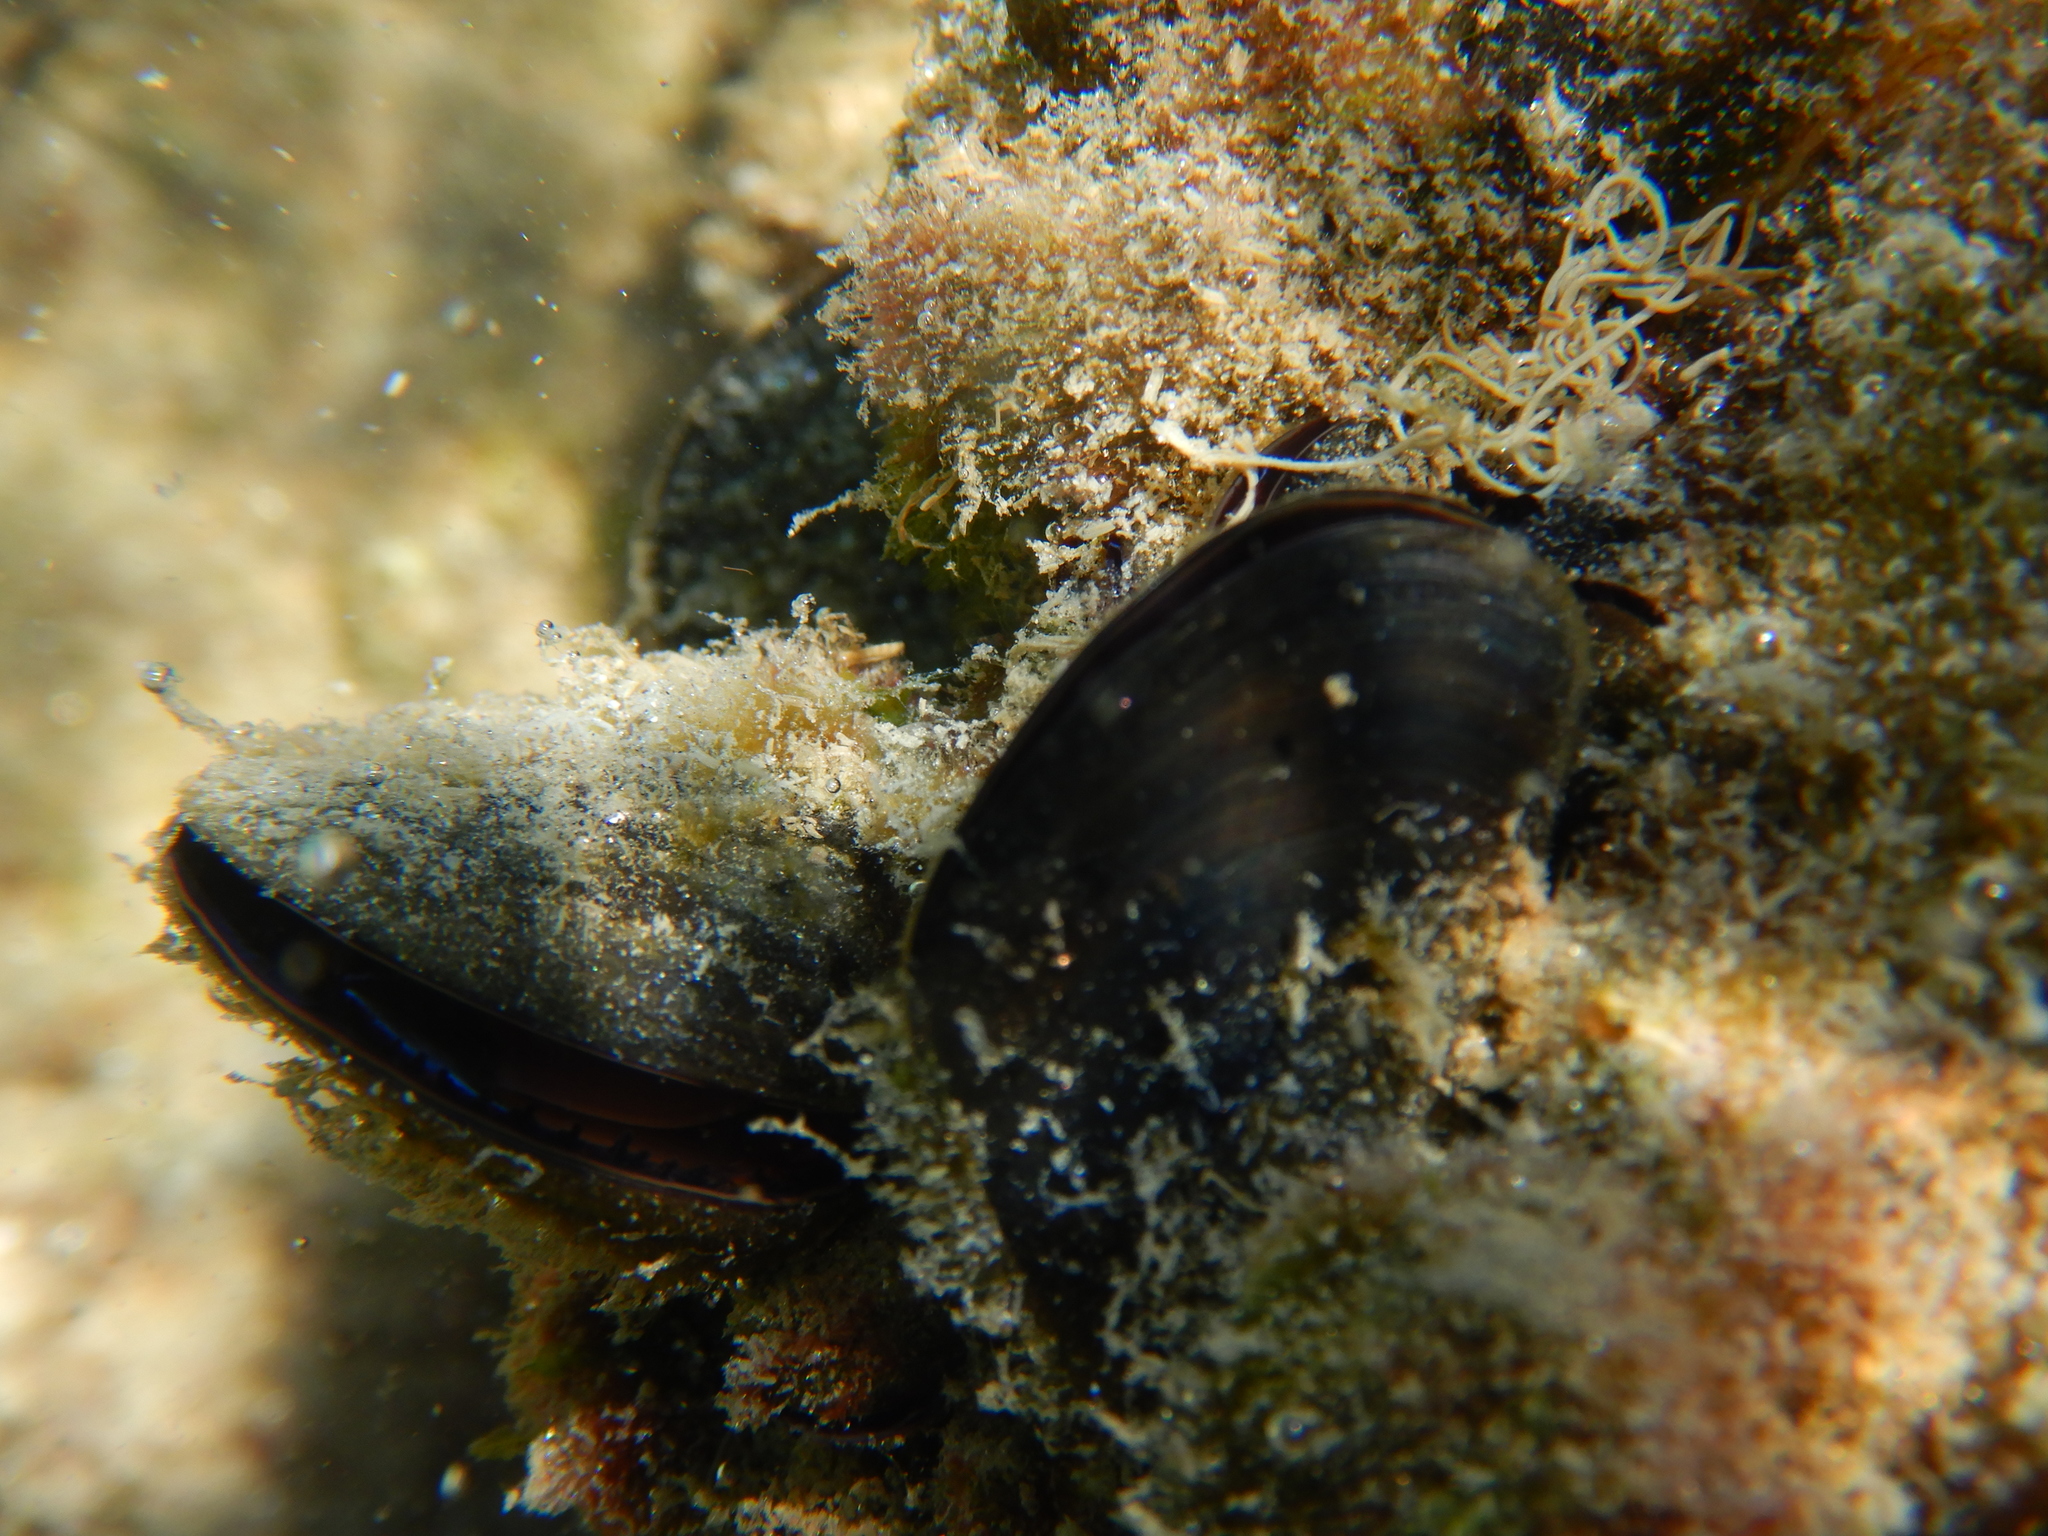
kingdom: Animalia
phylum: Mollusca
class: Bivalvia
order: Mytilida
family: Mytilidae
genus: Mytilus
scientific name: Mytilus galloprovincialis
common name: Mediterranean mussel
